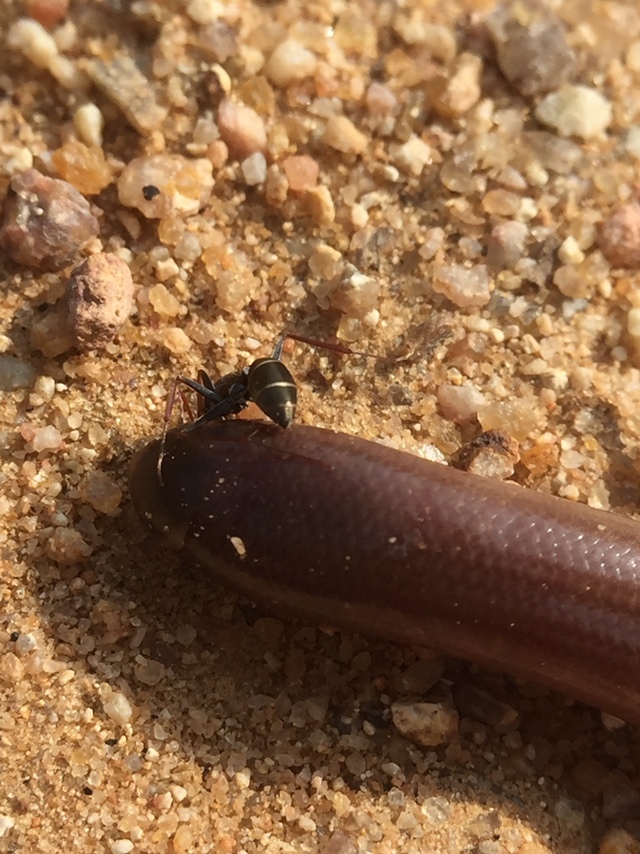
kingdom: Animalia
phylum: Chordata
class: Squamata
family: Typhlopidae
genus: Indotyphlops
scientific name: Indotyphlops braminus
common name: Brahminy blindsnake
